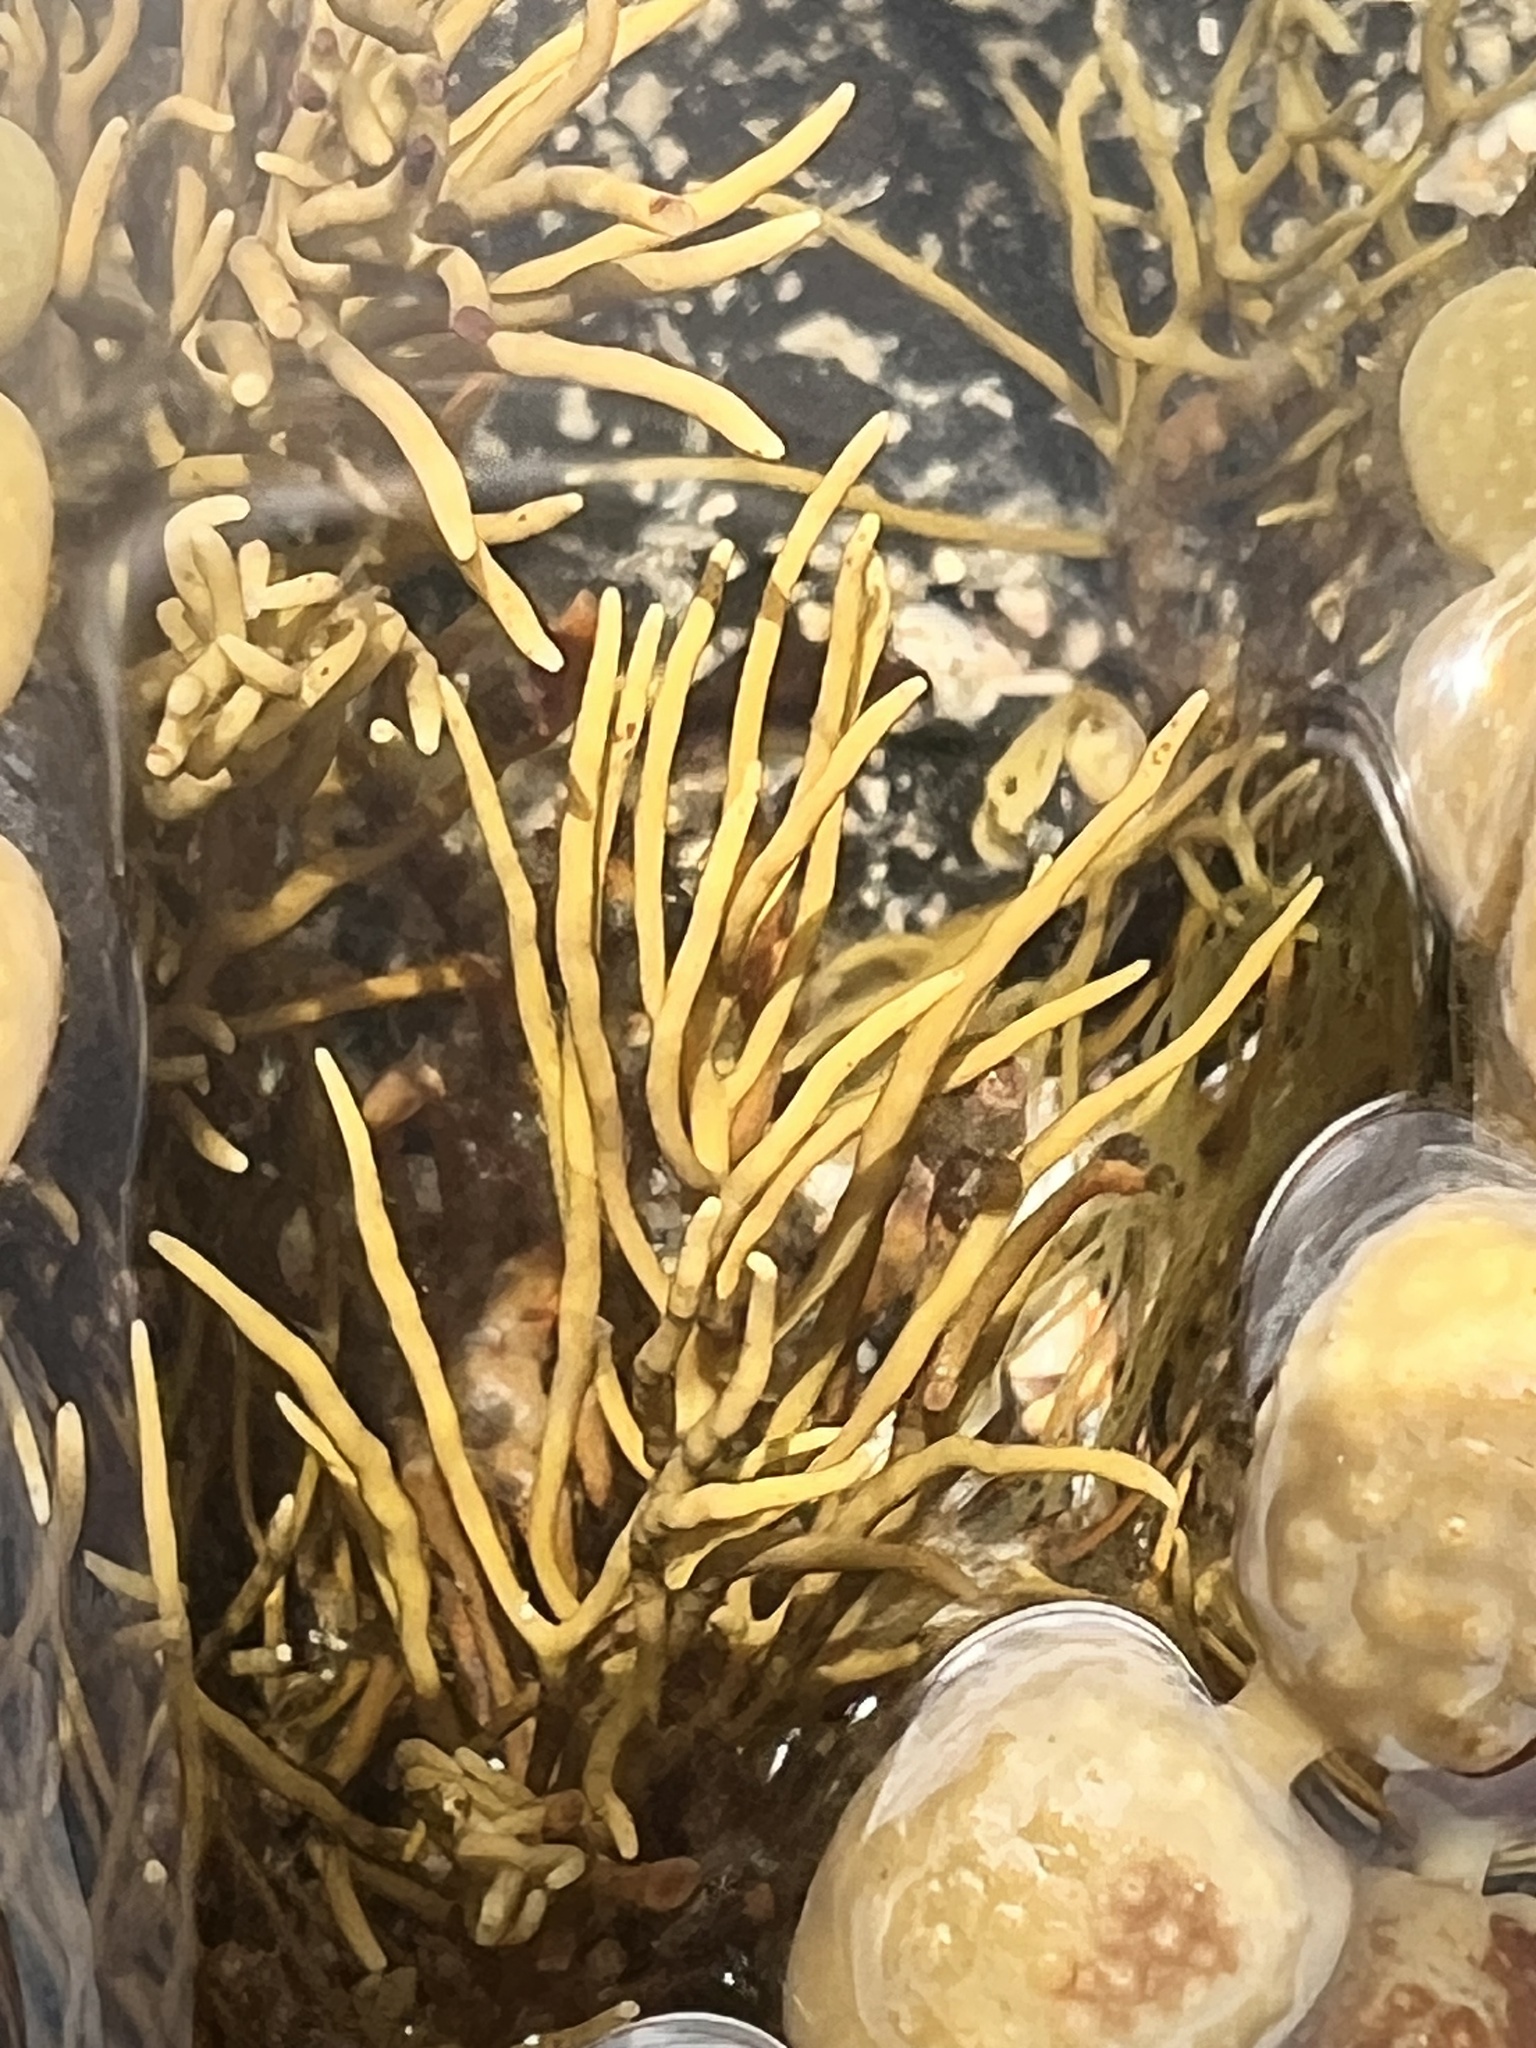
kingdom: Chromista
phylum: Ochrophyta
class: Phaeophyceae
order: Fucales
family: Sargassaceae
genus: Cystophora
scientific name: Cystophora retroflexa
